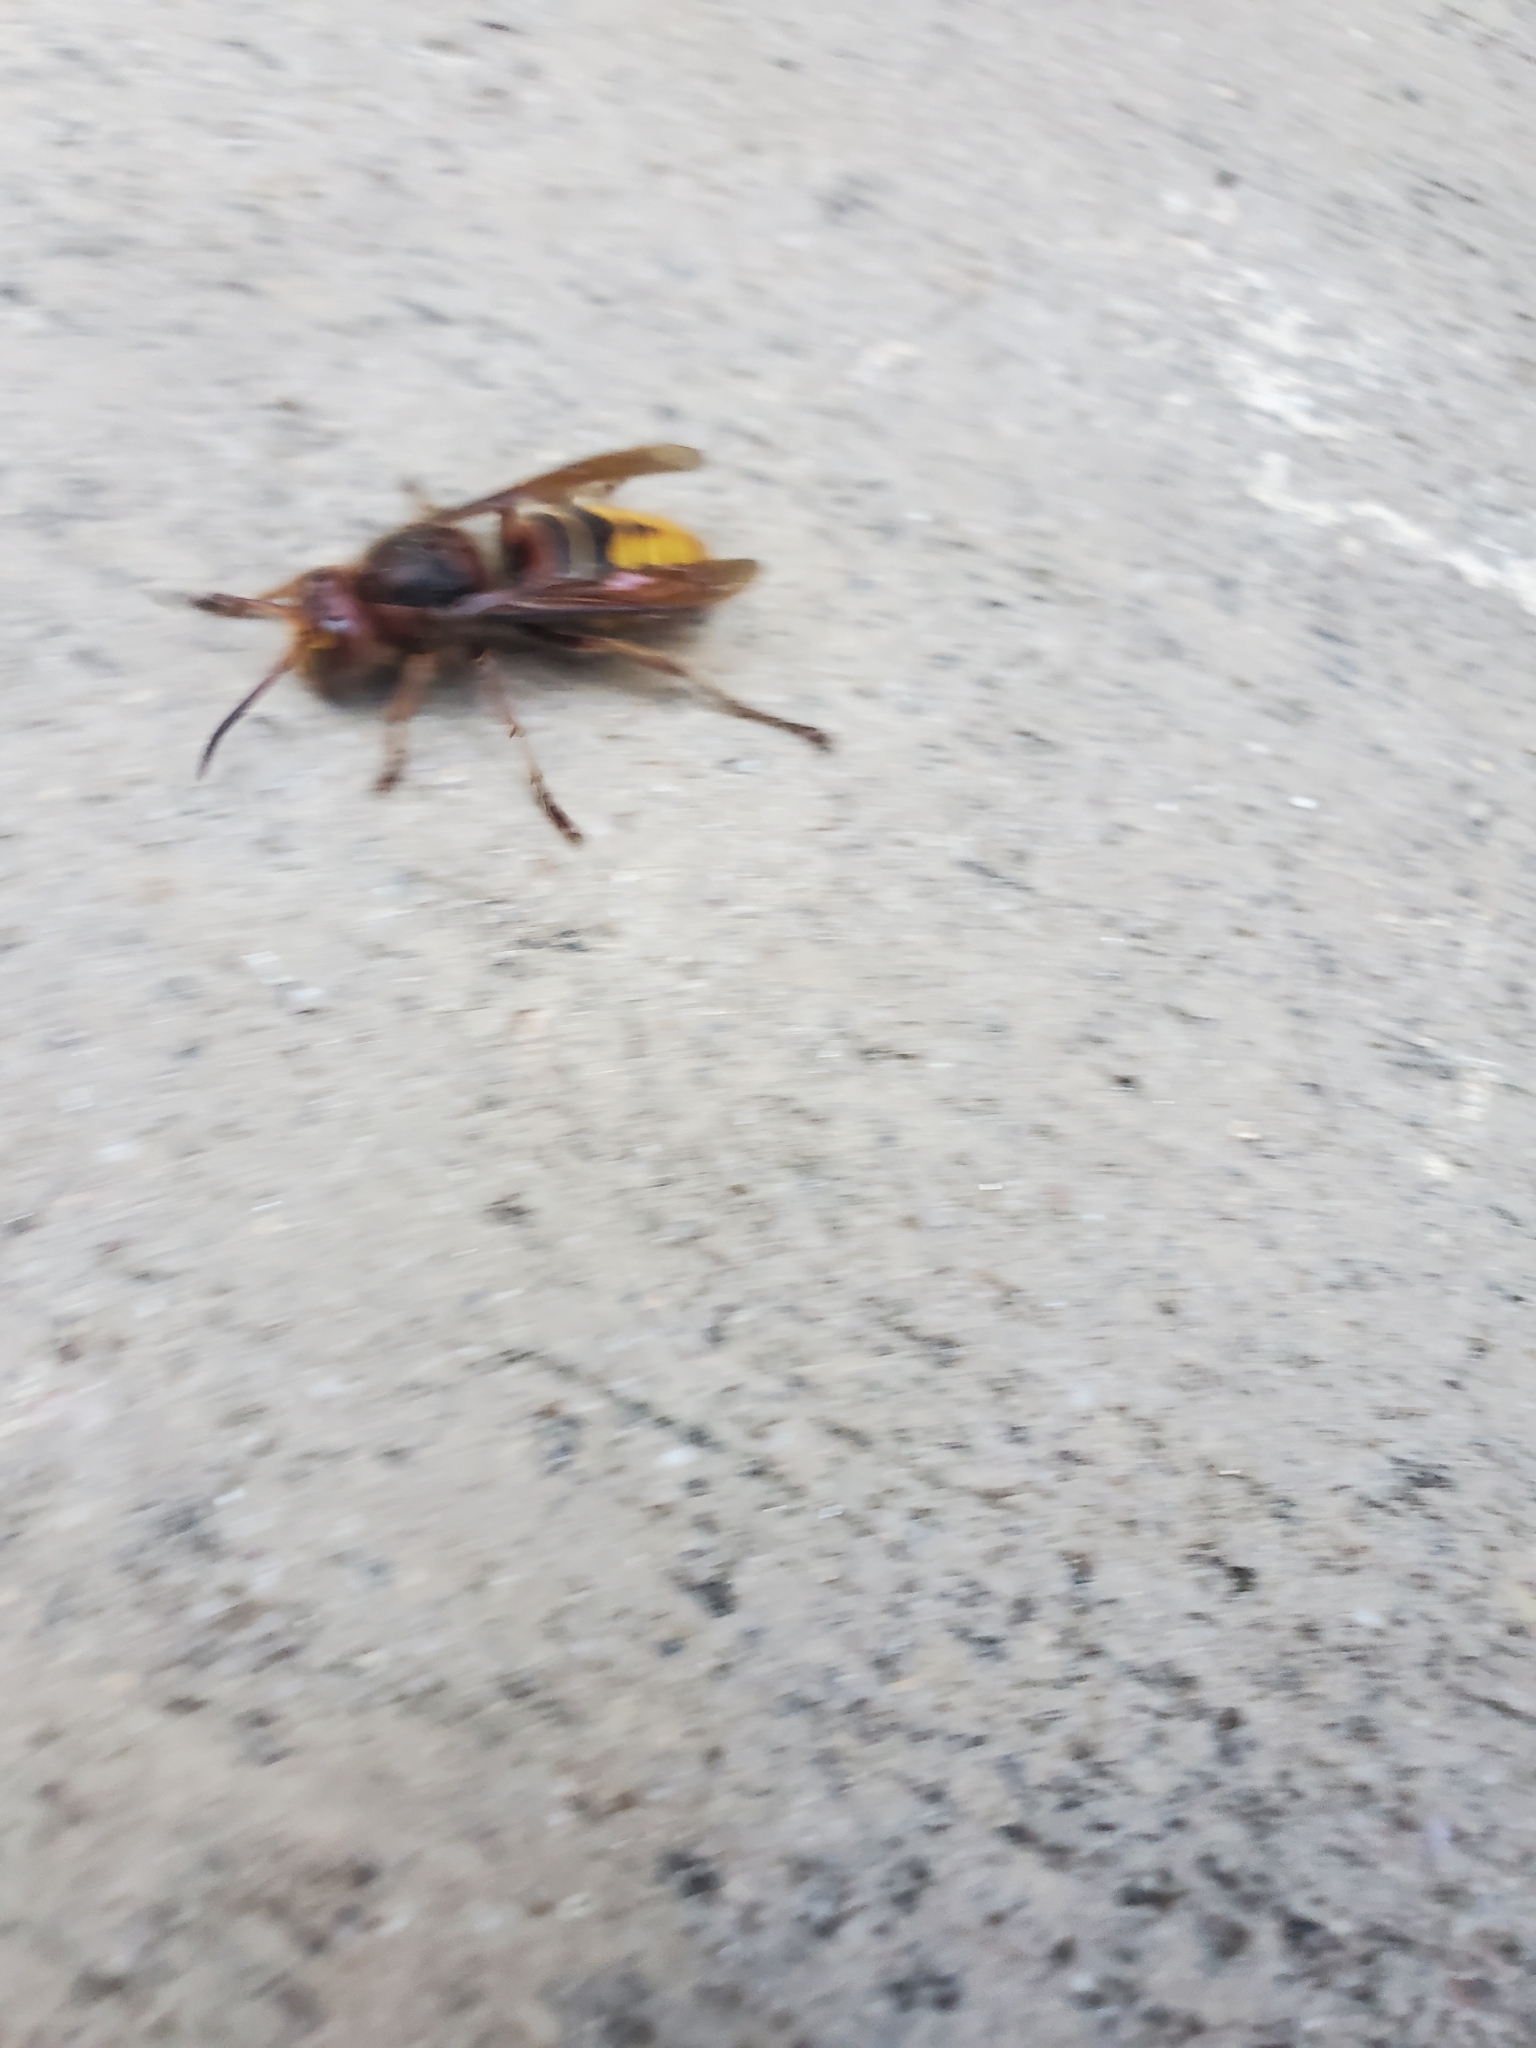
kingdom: Animalia
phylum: Arthropoda
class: Insecta
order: Hymenoptera
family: Vespidae
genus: Vespa
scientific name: Vespa crabro
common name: Hornet
